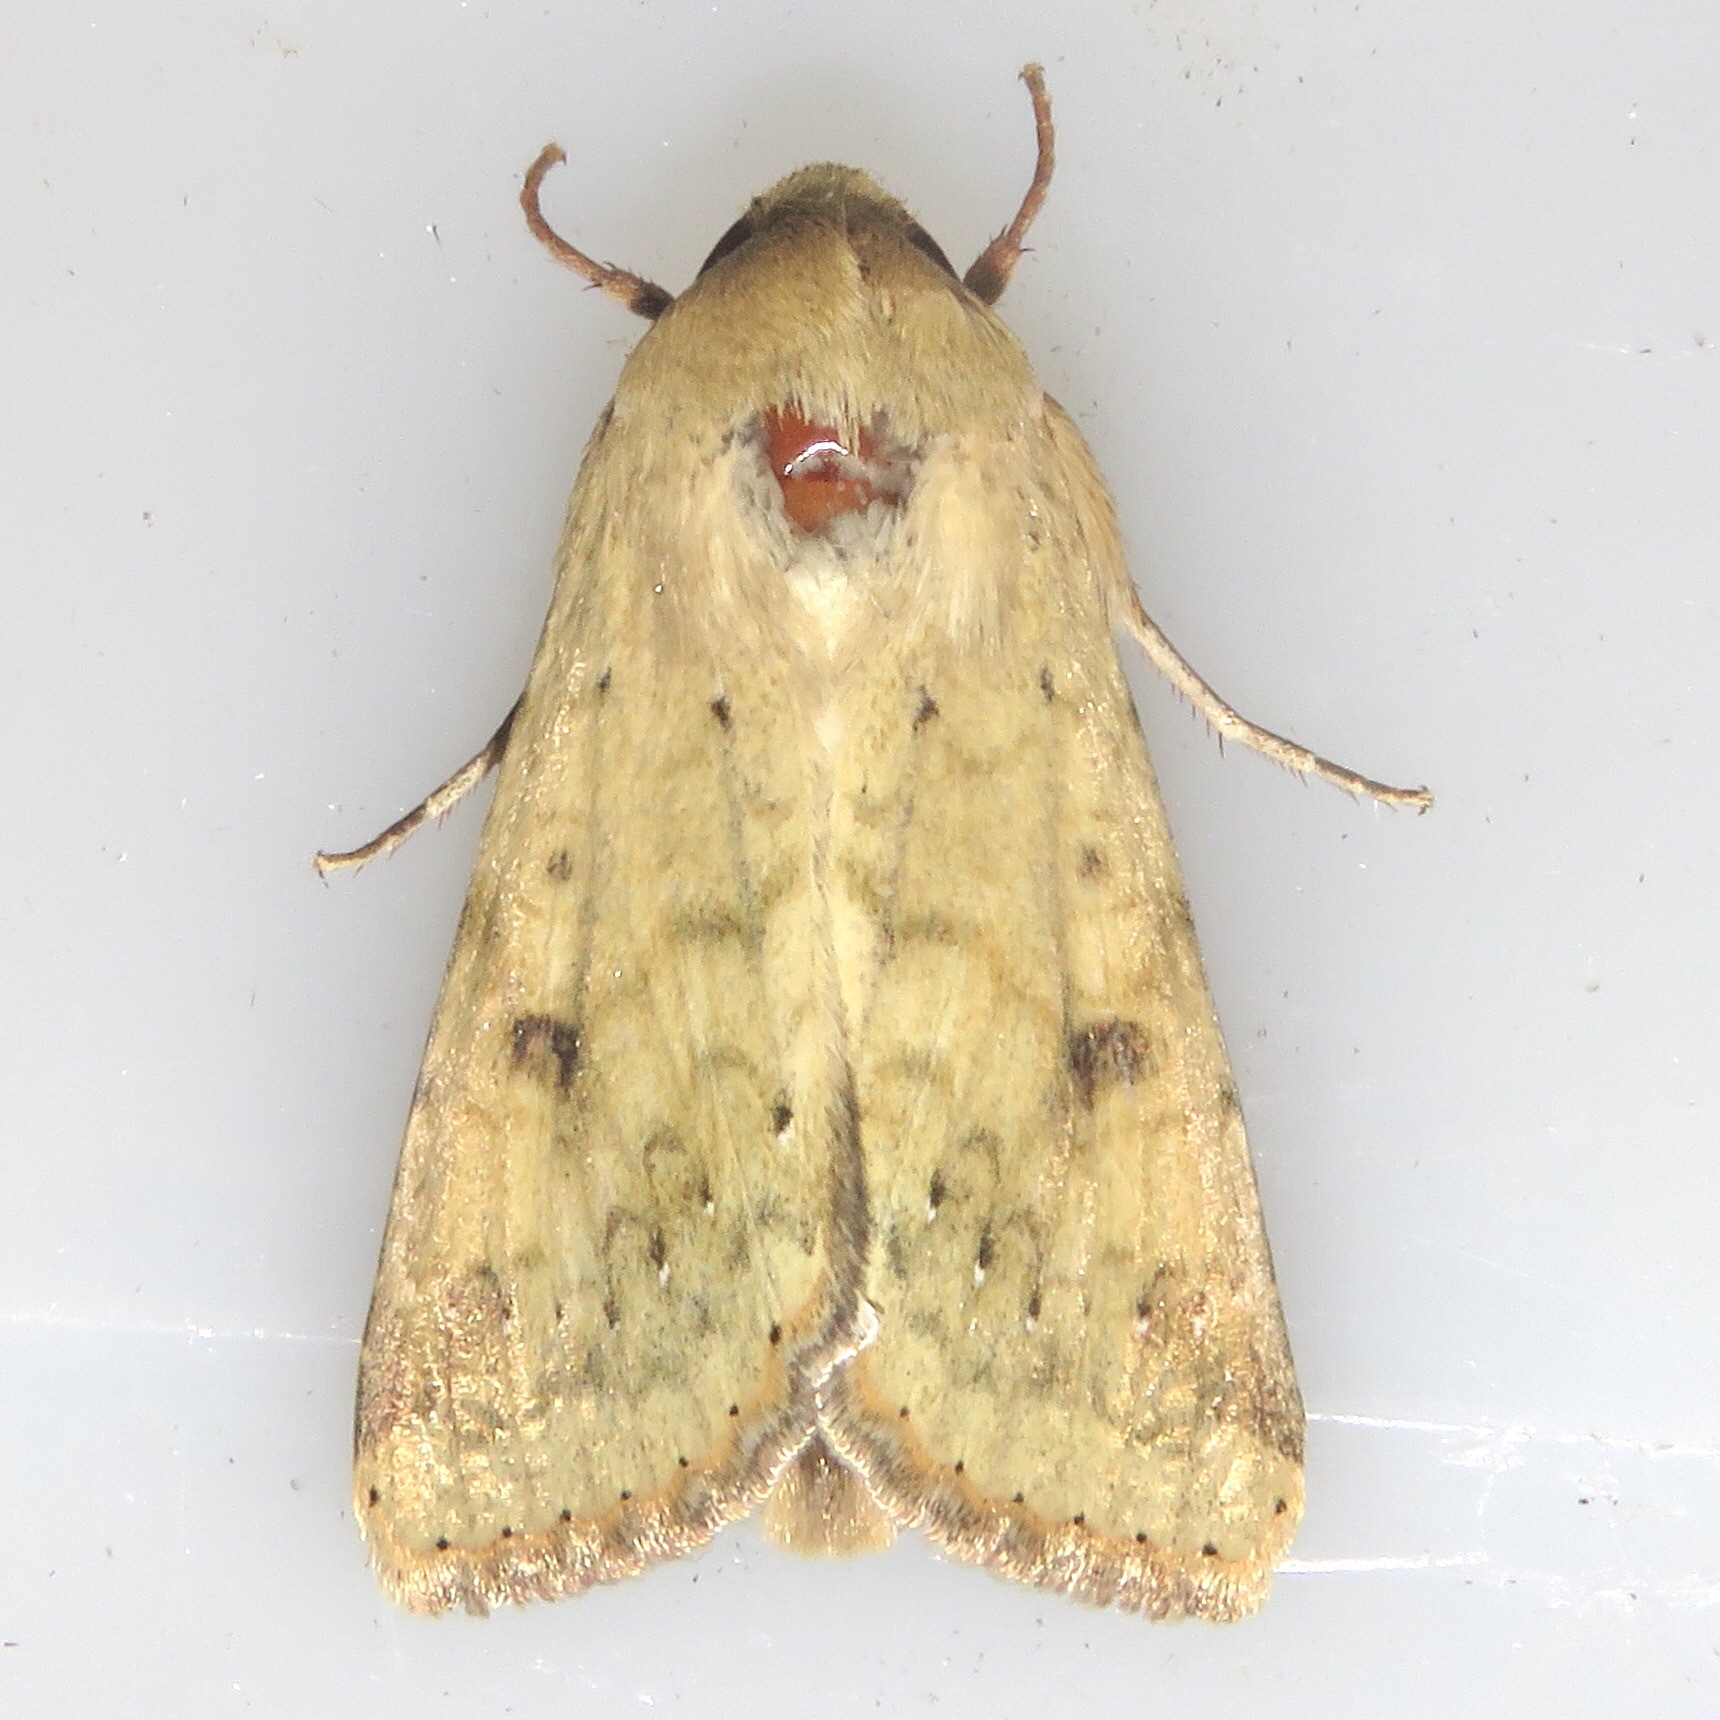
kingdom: Animalia
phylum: Arthropoda
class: Insecta
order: Lepidoptera
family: Noctuidae
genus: Helicoverpa
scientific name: Helicoverpa zea
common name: Bollworm
